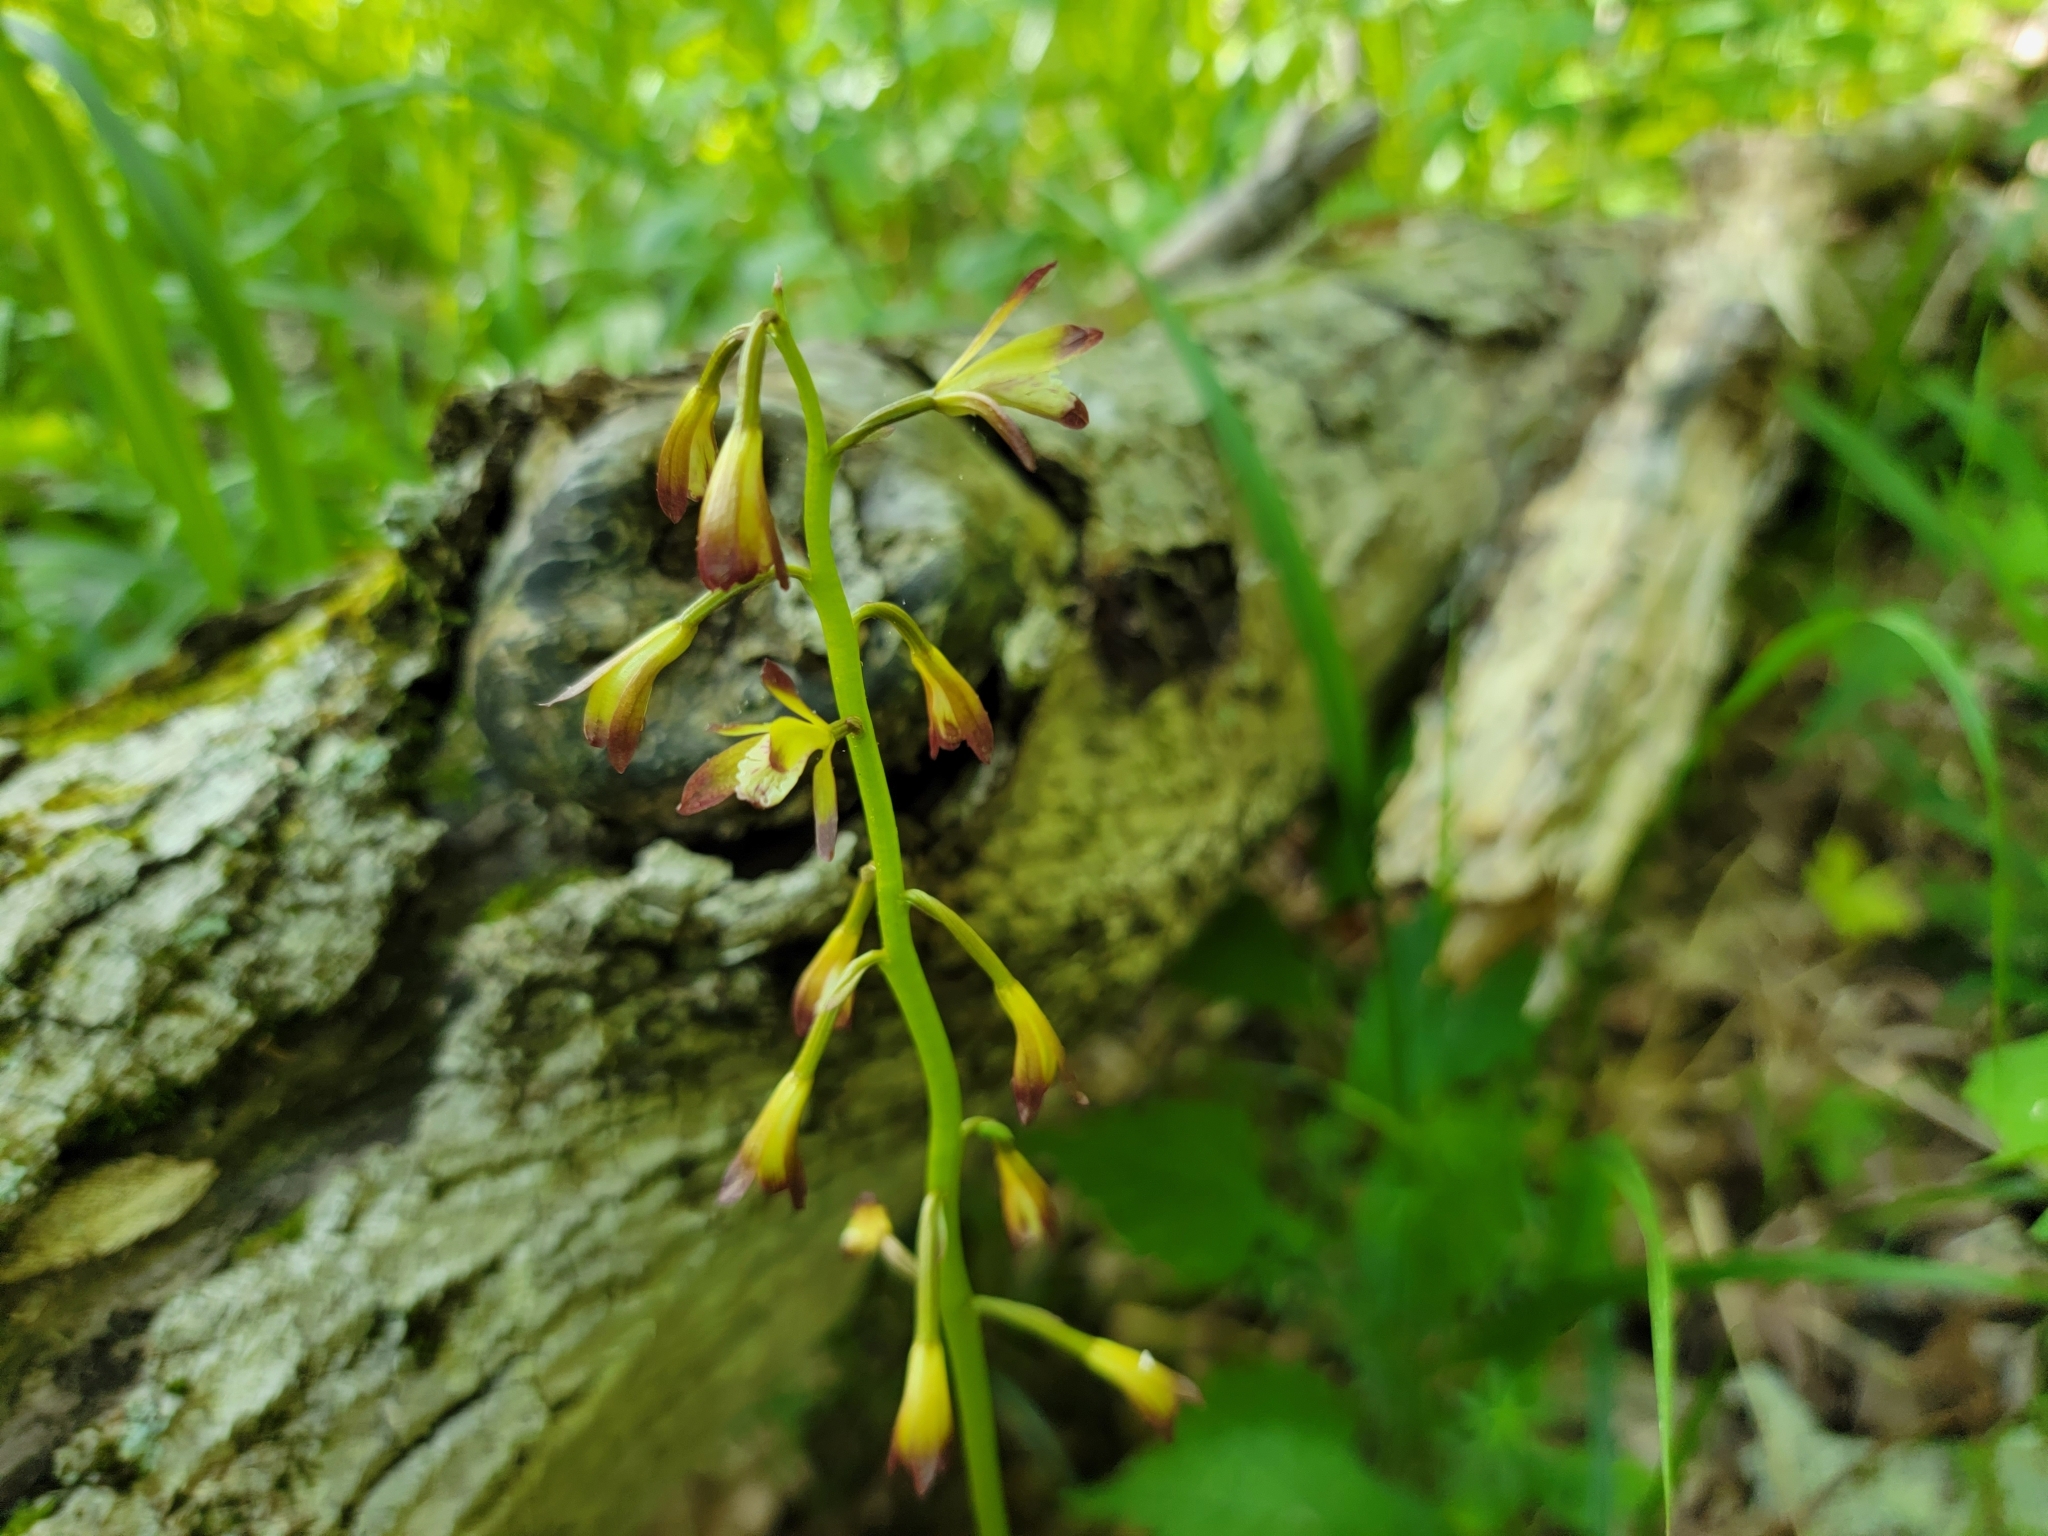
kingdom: Plantae
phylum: Tracheophyta
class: Liliopsida
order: Asparagales
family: Orchidaceae
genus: Aplectrum
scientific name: Aplectrum hyemale
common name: Adam-and-eve
